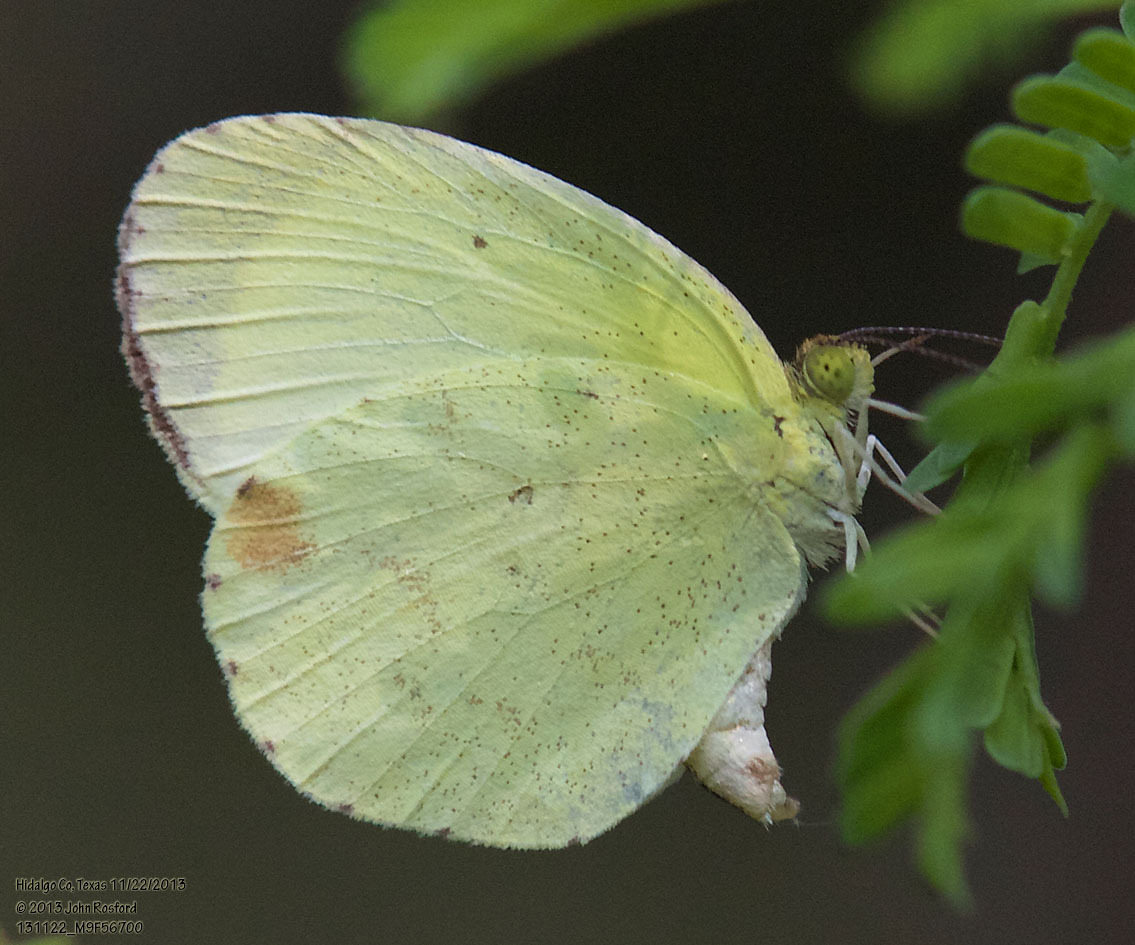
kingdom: Animalia
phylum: Arthropoda
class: Insecta
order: Lepidoptera
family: Pieridae
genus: Pyrisitia
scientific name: Pyrisitia nise
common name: Mimosa yellow
